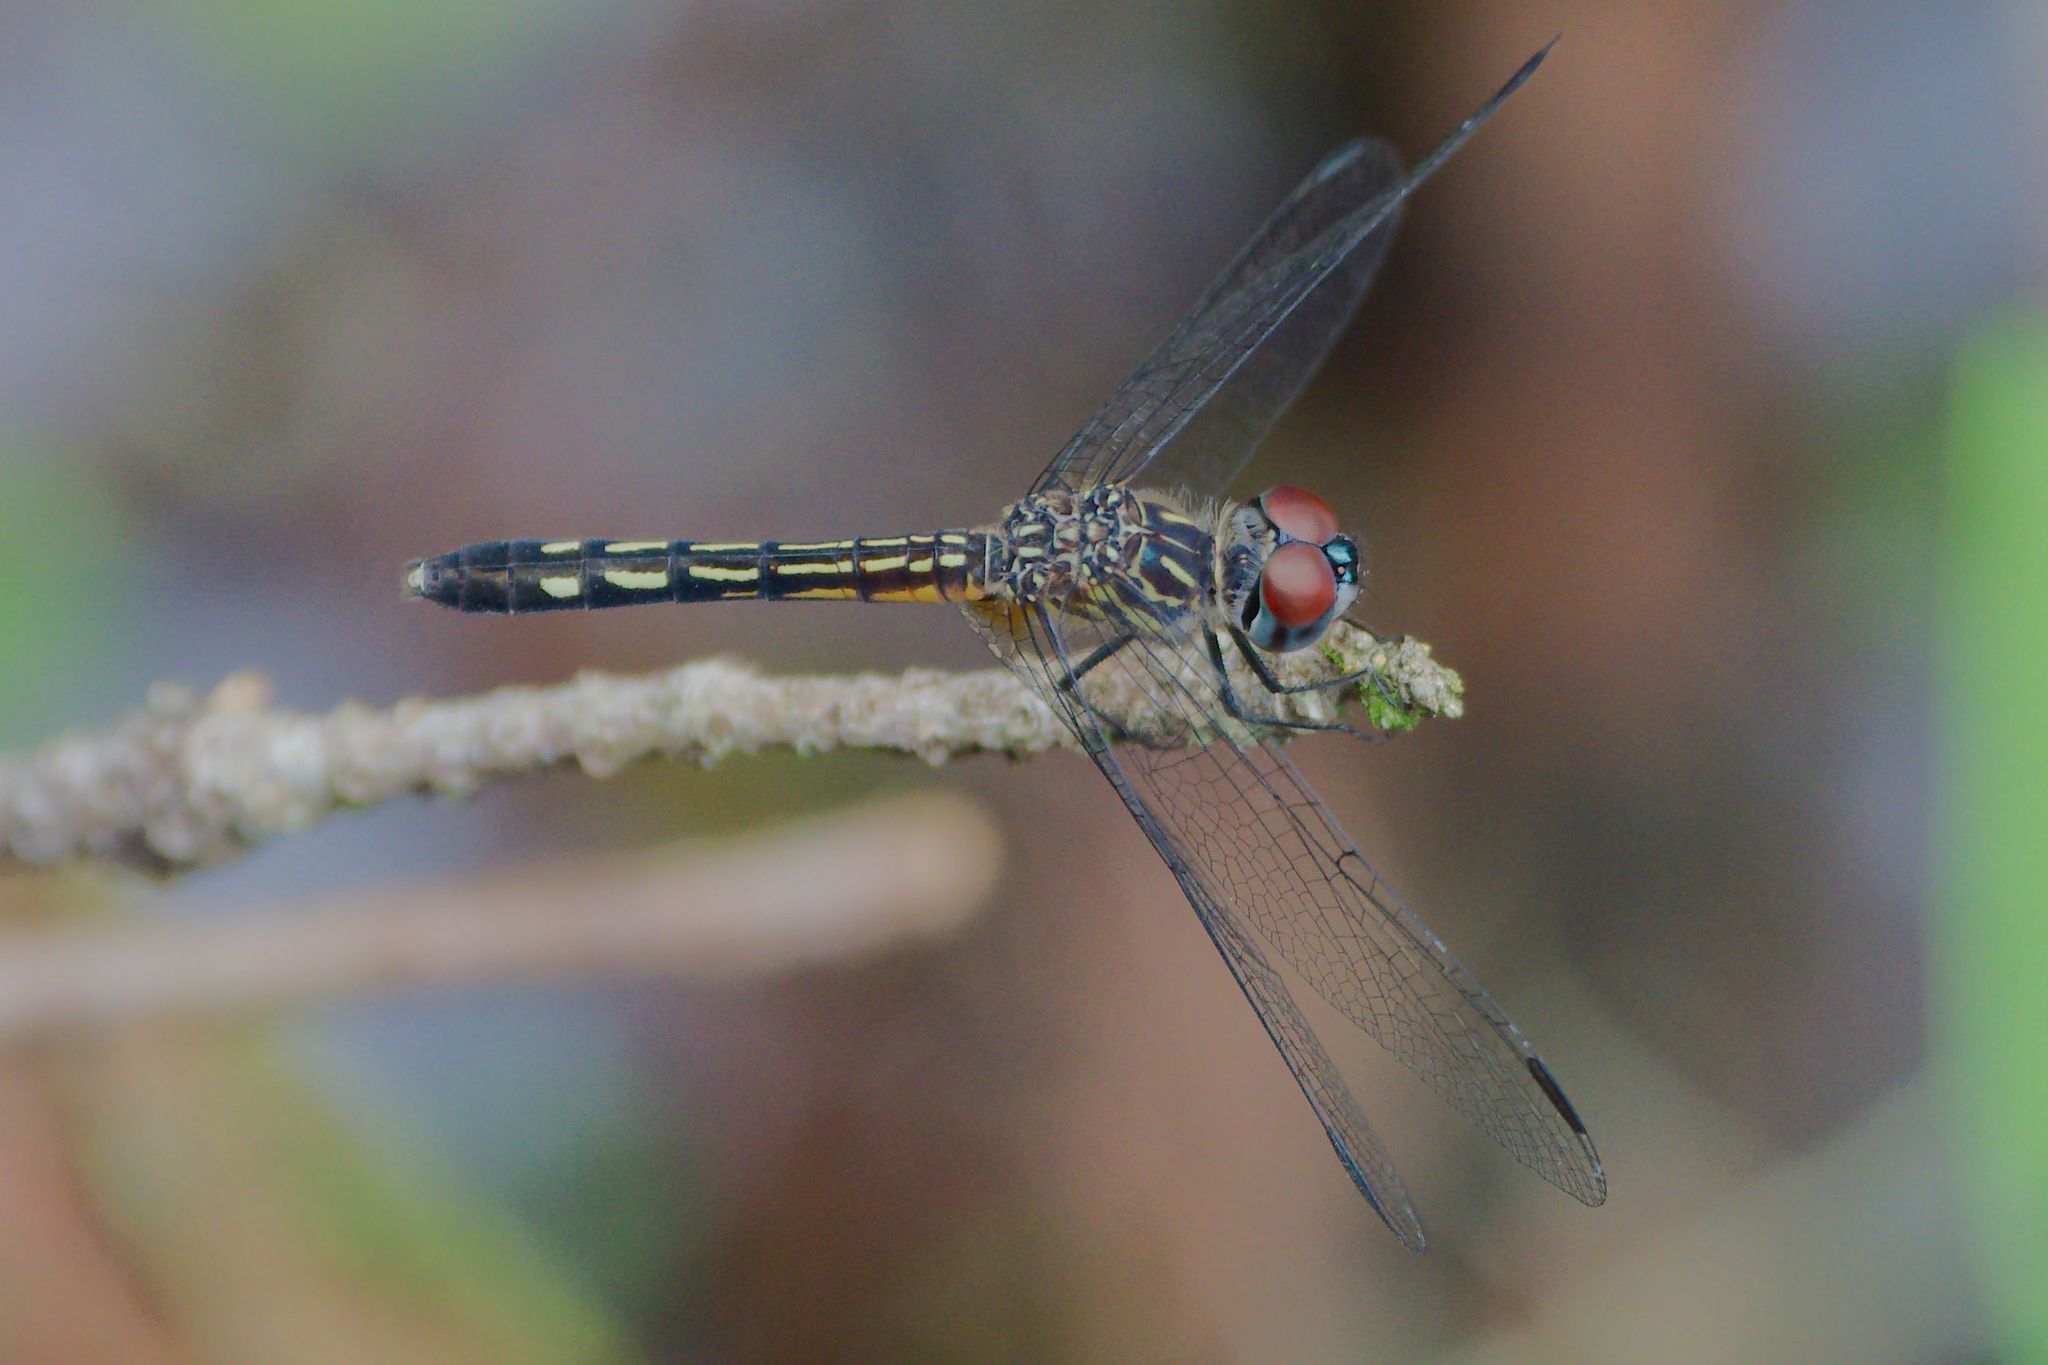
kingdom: Animalia
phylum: Arthropoda
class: Insecta
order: Odonata
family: Libellulidae
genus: Pachydiplax
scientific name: Pachydiplax longipennis
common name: Blue dasher
